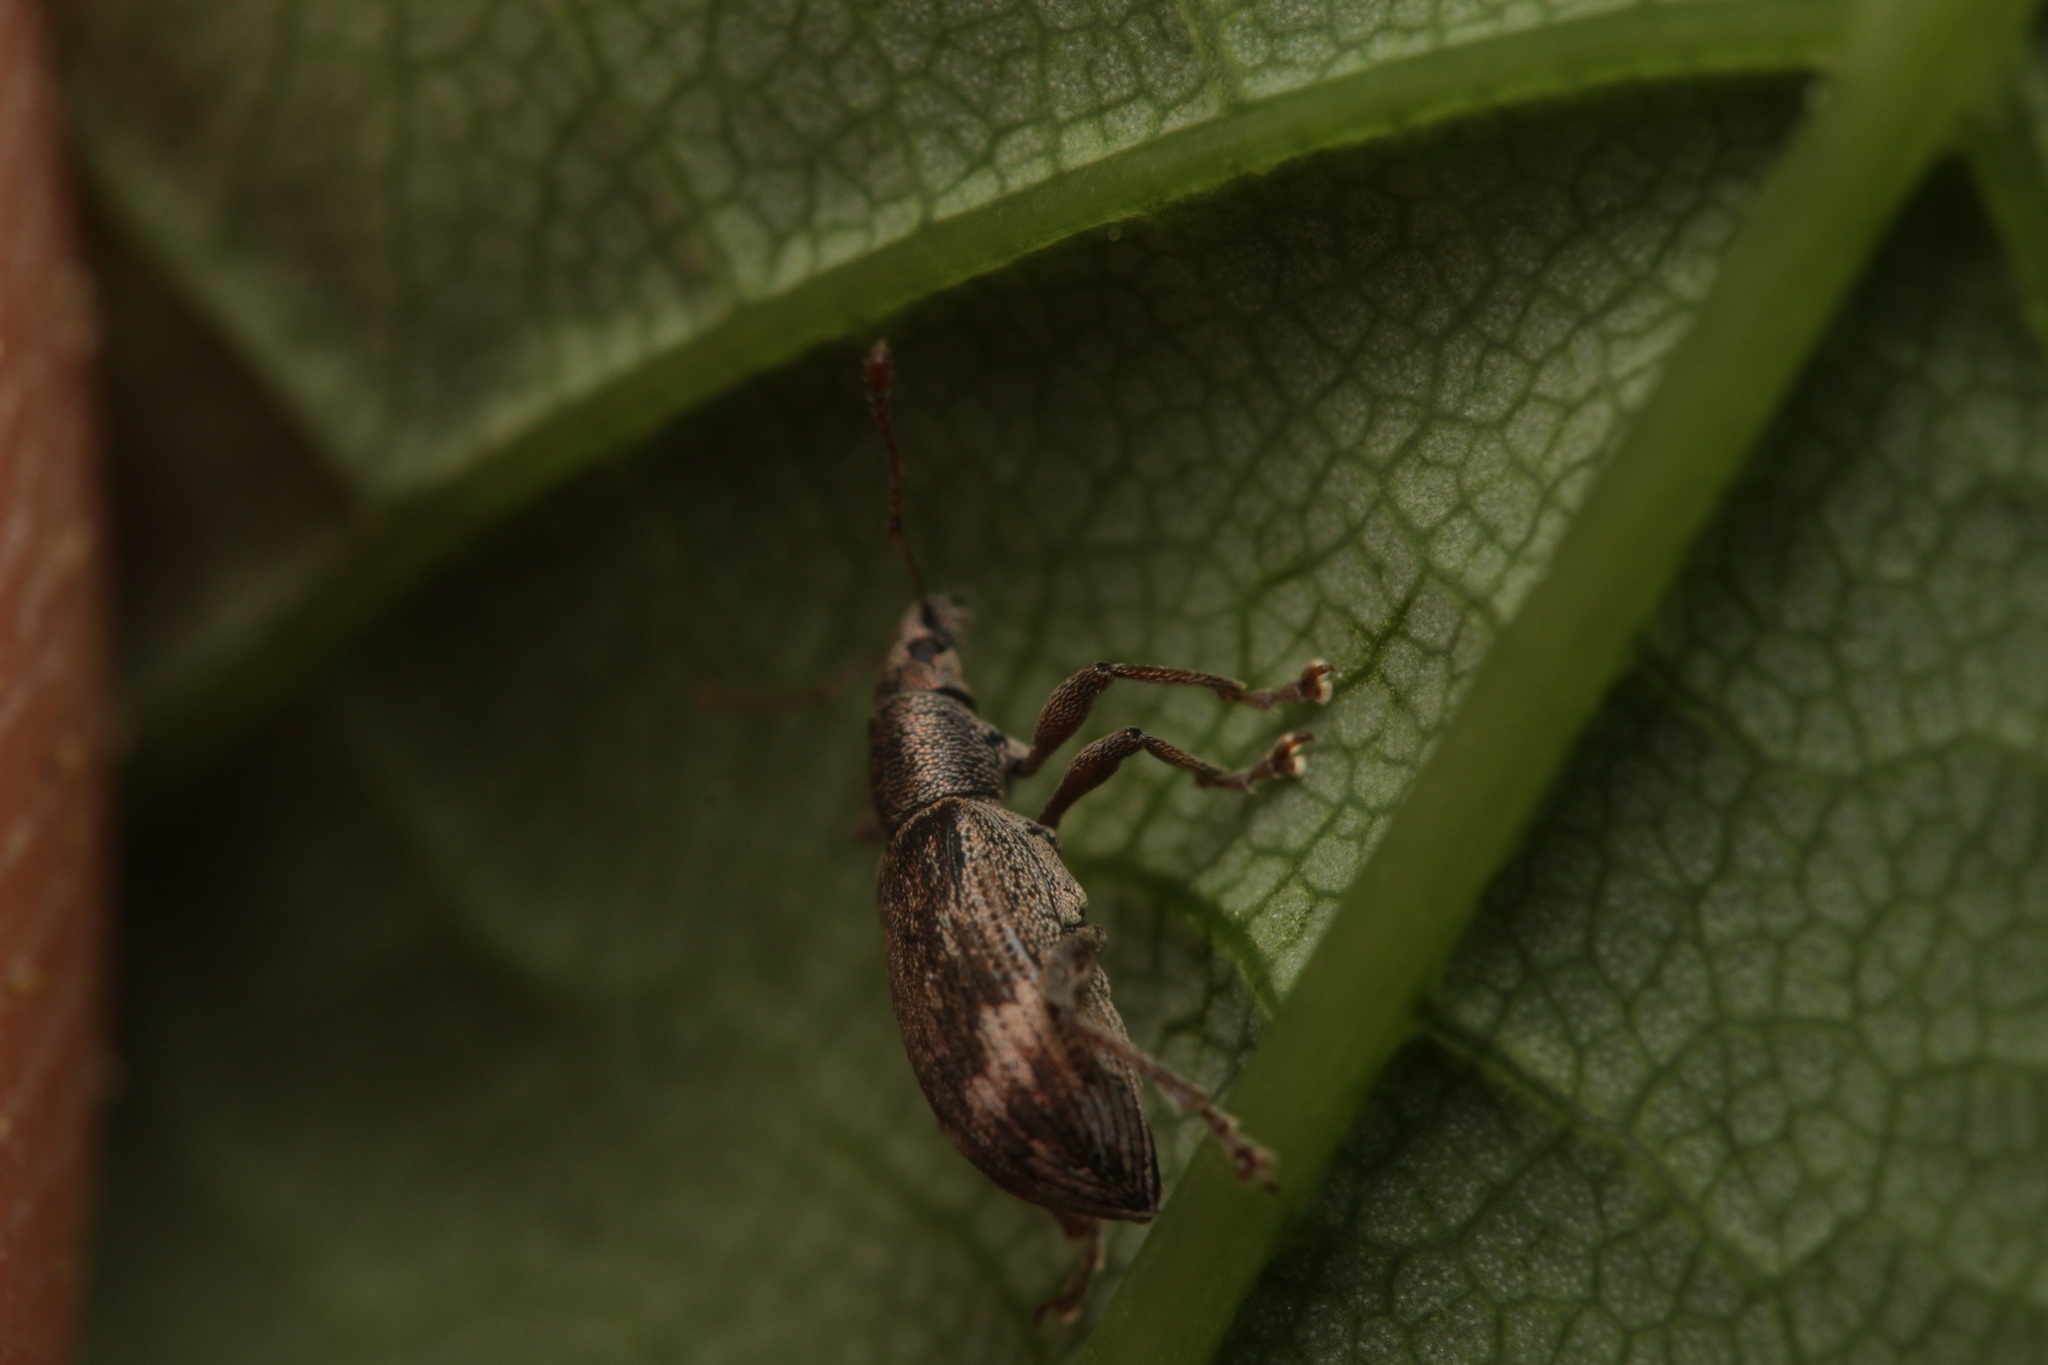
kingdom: Animalia
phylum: Arthropoda
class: Insecta
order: Coleoptera
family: Curculionidae
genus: Polydrusus
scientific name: Polydrusus tereticollis
